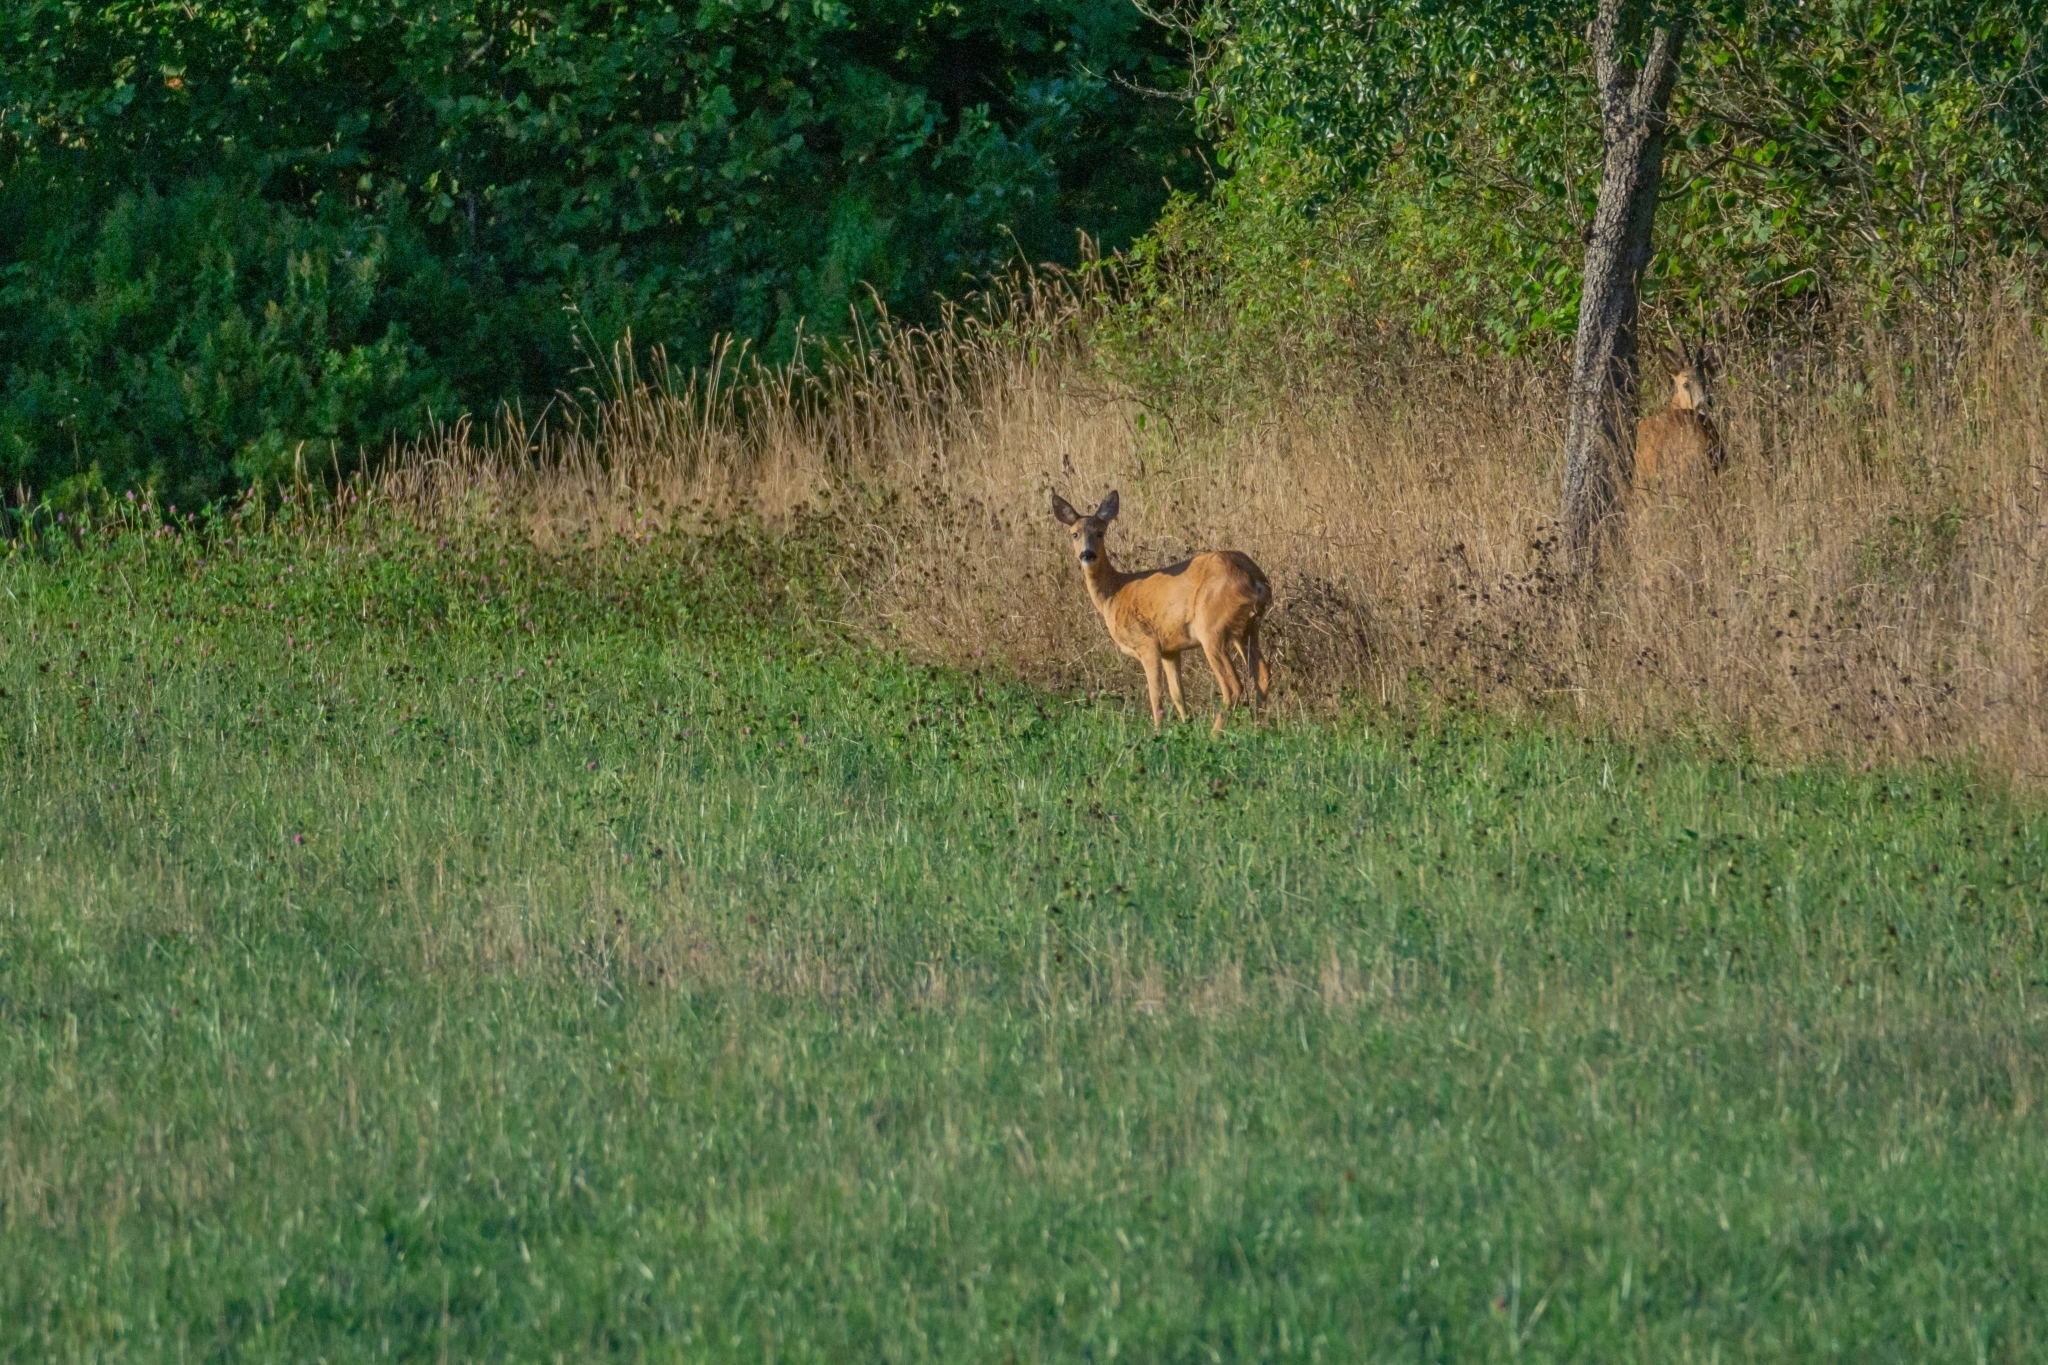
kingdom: Animalia
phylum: Chordata
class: Mammalia
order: Artiodactyla
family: Cervidae
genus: Capreolus
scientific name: Capreolus capreolus
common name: Western roe deer
